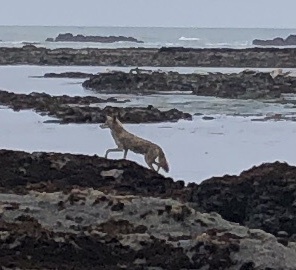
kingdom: Animalia
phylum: Chordata
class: Mammalia
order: Carnivora
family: Canidae
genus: Canis
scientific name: Canis latrans
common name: Coyote
